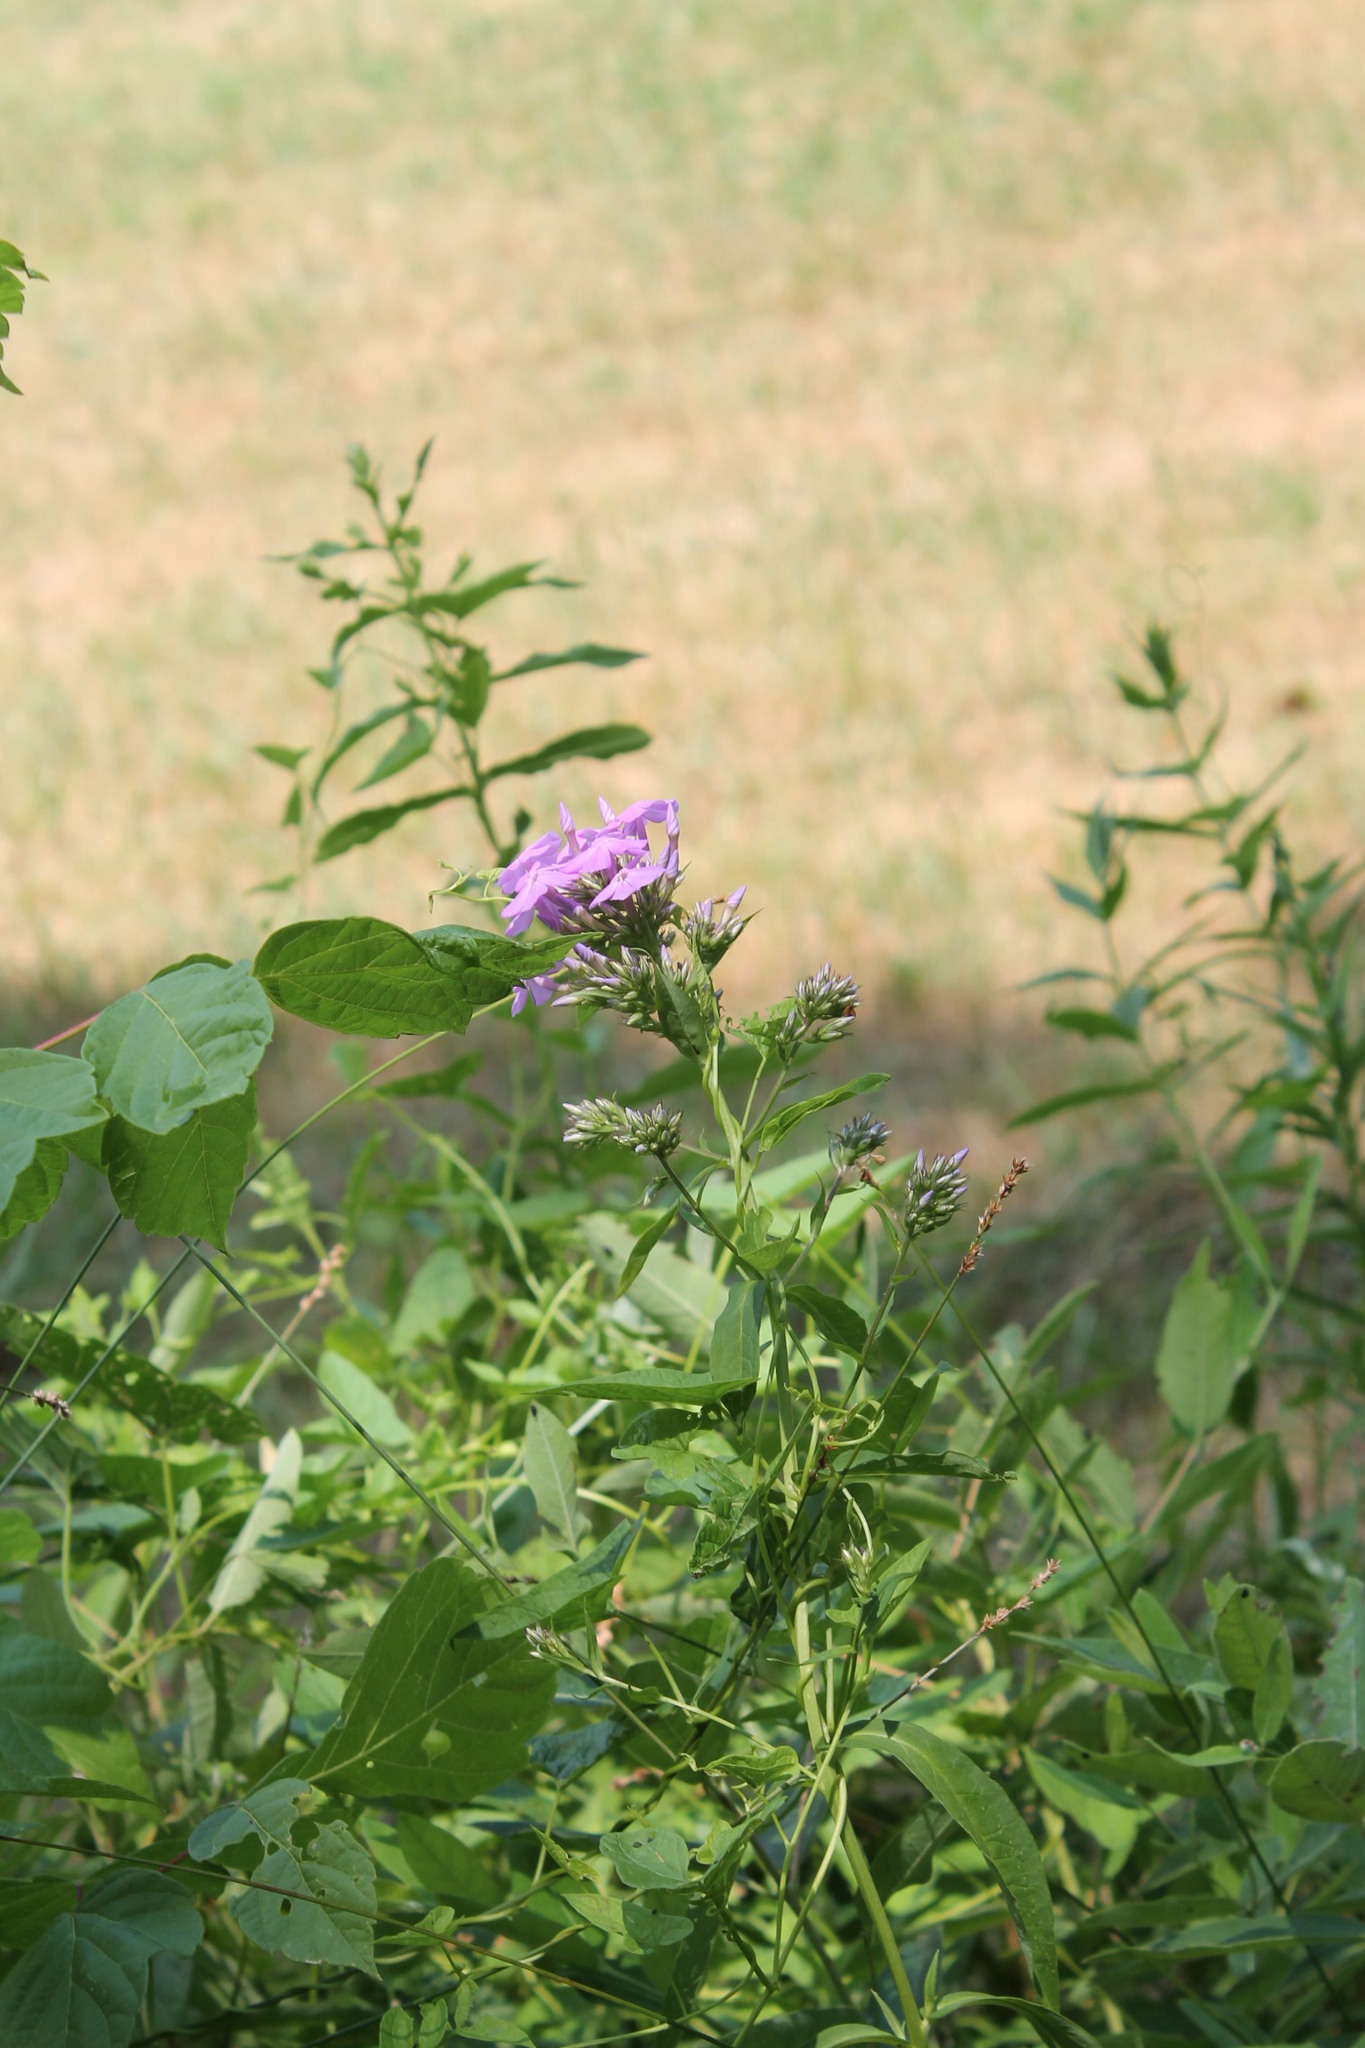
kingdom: Plantae
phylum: Tracheophyta
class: Magnoliopsida
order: Ericales
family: Polemoniaceae
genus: Phlox
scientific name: Phlox paniculata
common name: Fall phlox
